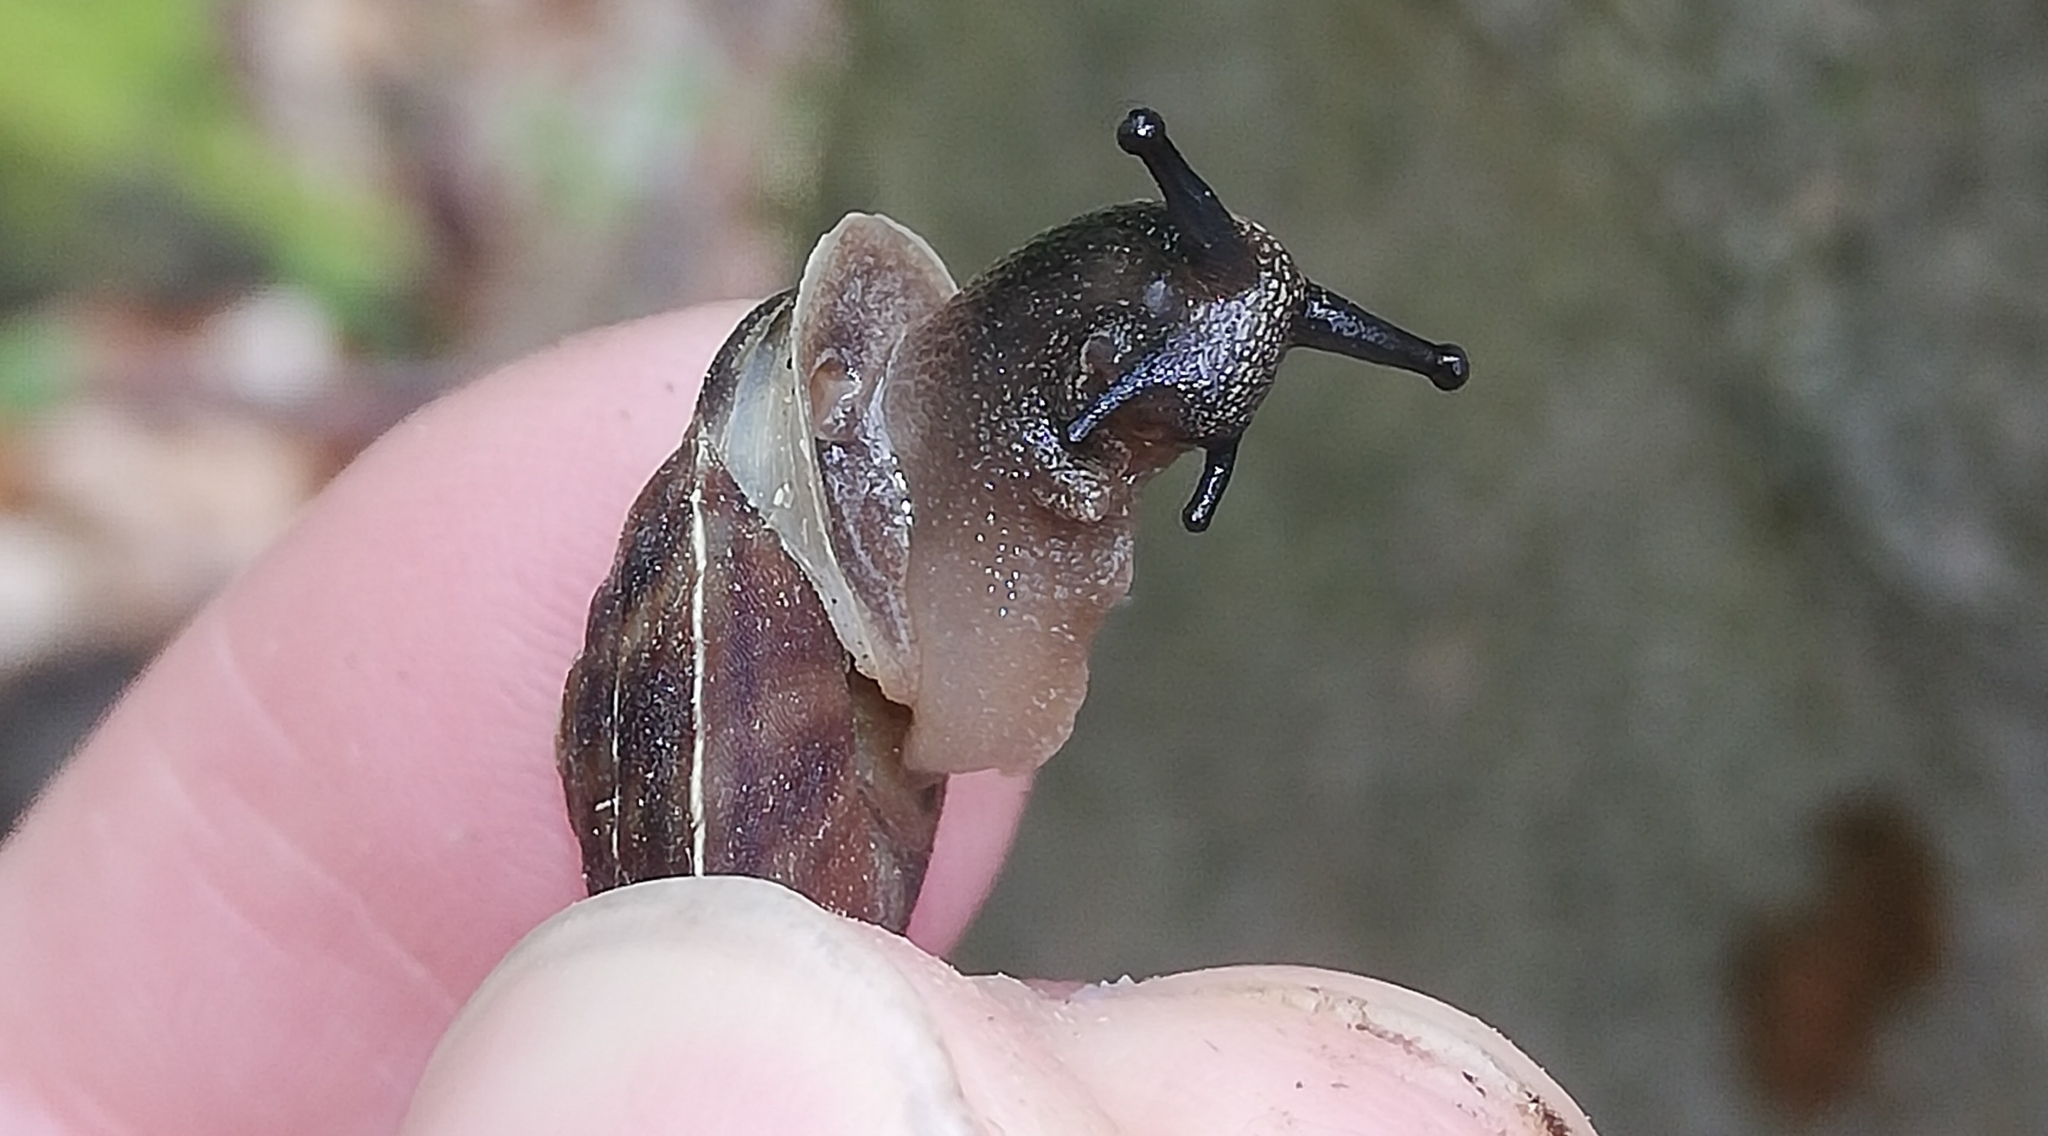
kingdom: Animalia
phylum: Mollusca
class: Gastropoda
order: Stylommatophora
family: Helicidae
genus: Helicigona
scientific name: Helicigona lapicida
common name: Lapidary snail
